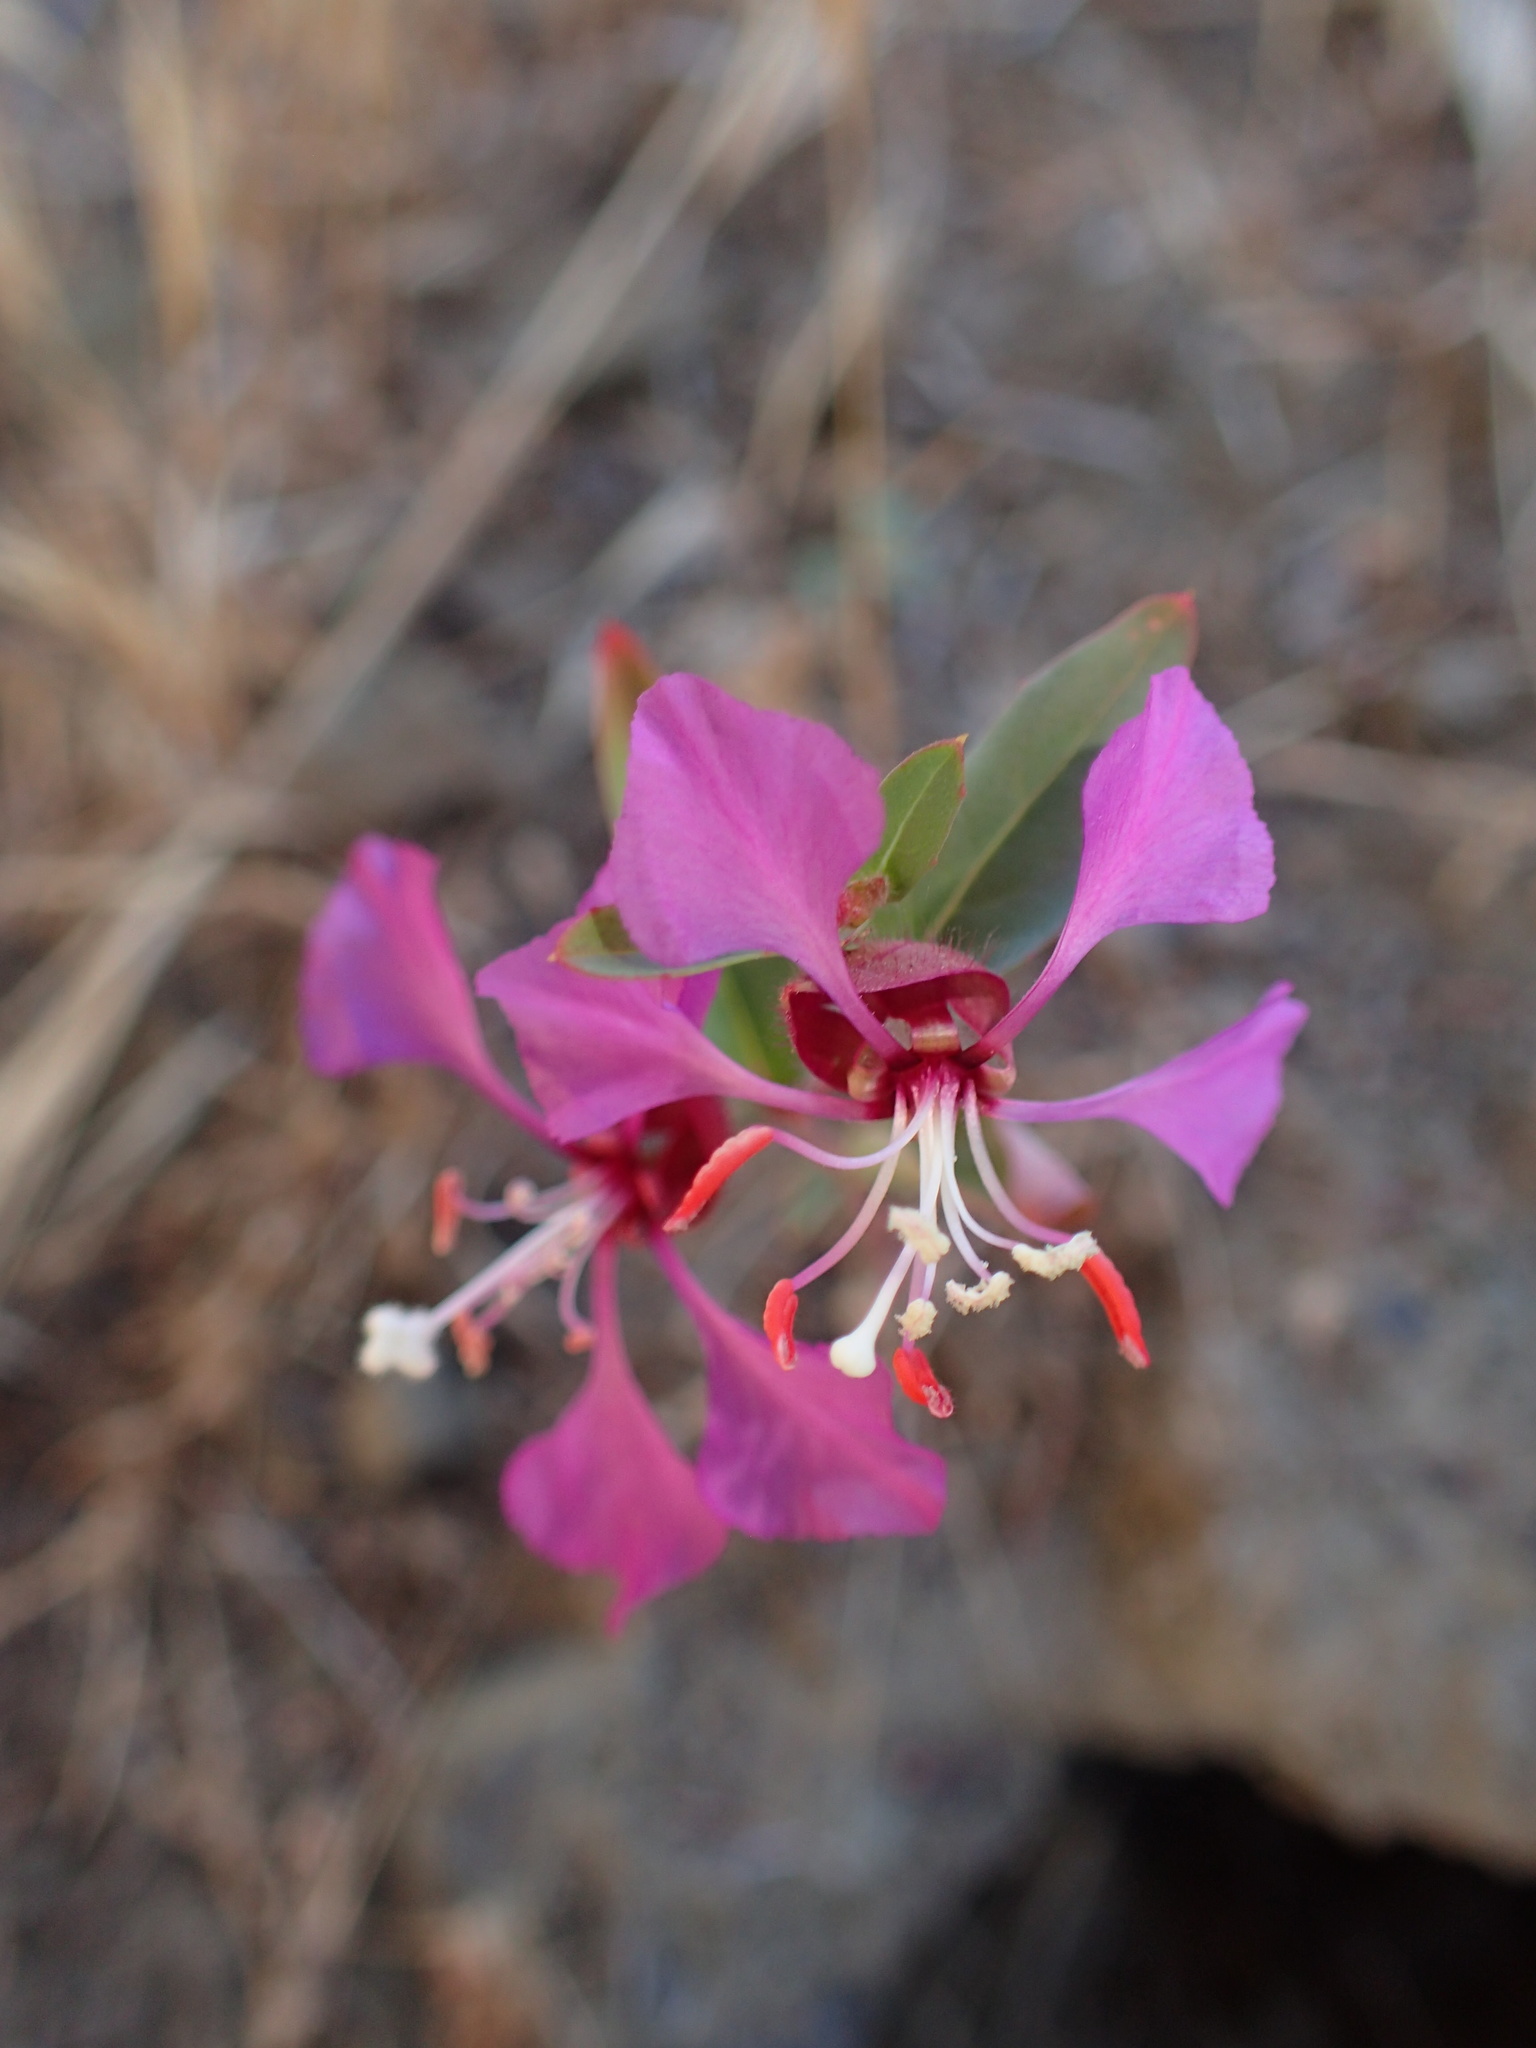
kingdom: Plantae
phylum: Tracheophyta
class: Magnoliopsida
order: Myrtales
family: Onagraceae
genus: Clarkia
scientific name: Clarkia unguiculata
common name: Clarkia
